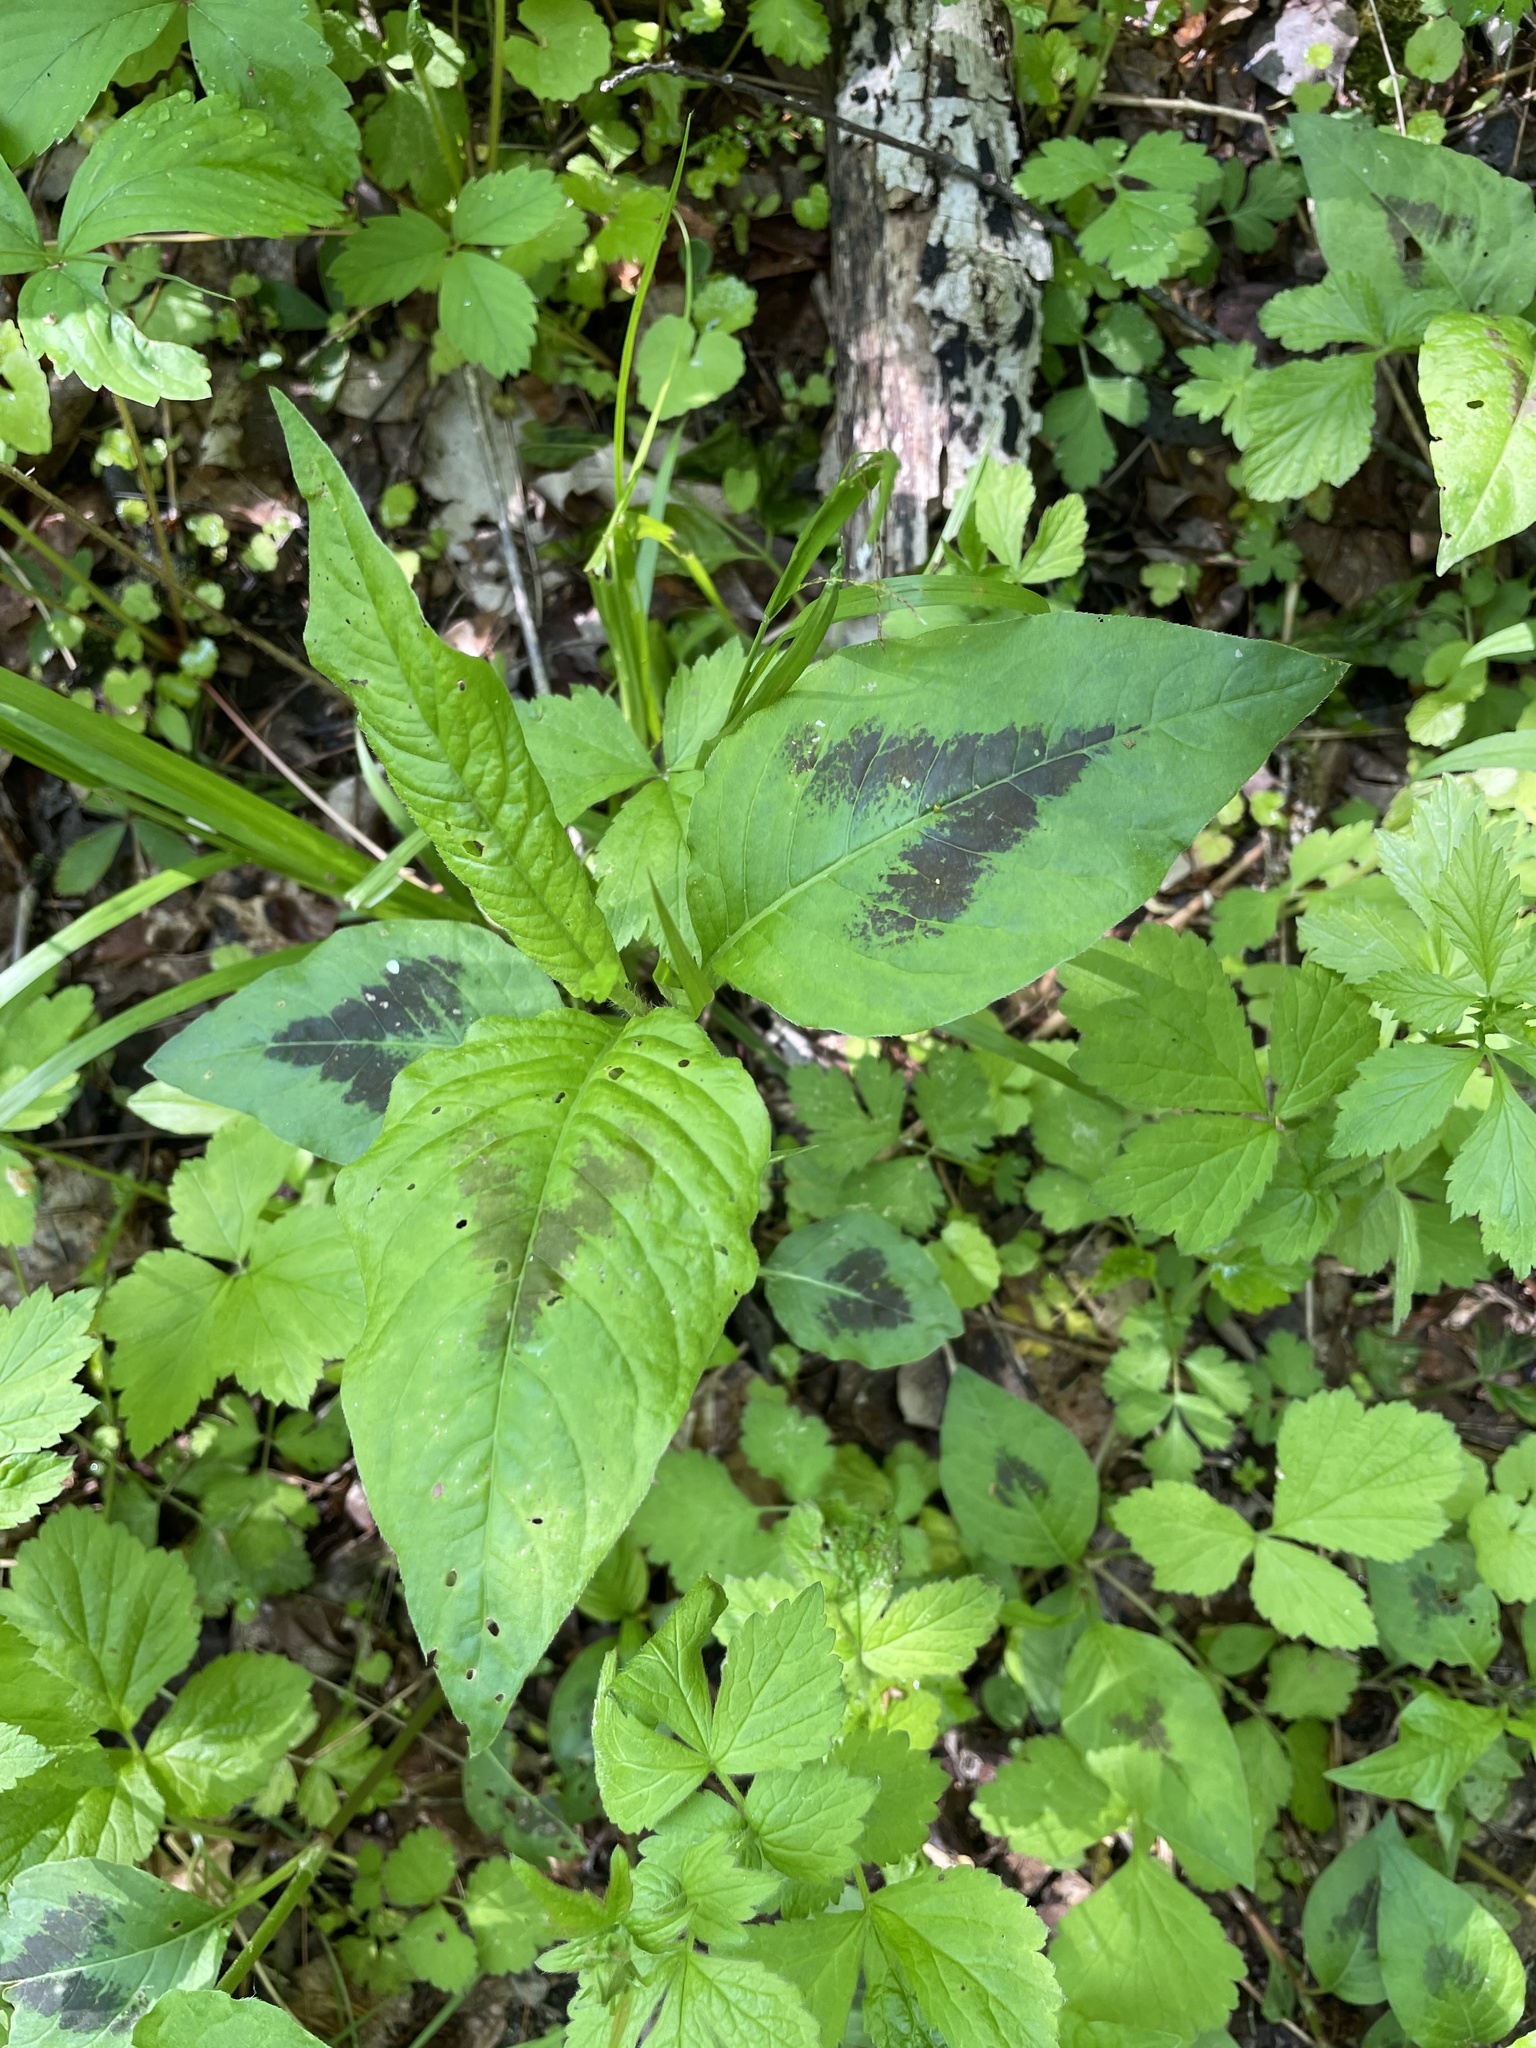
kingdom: Plantae
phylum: Tracheophyta
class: Magnoliopsida
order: Caryophyllales
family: Polygonaceae
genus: Persicaria
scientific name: Persicaria virginiana
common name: Jumpseed
